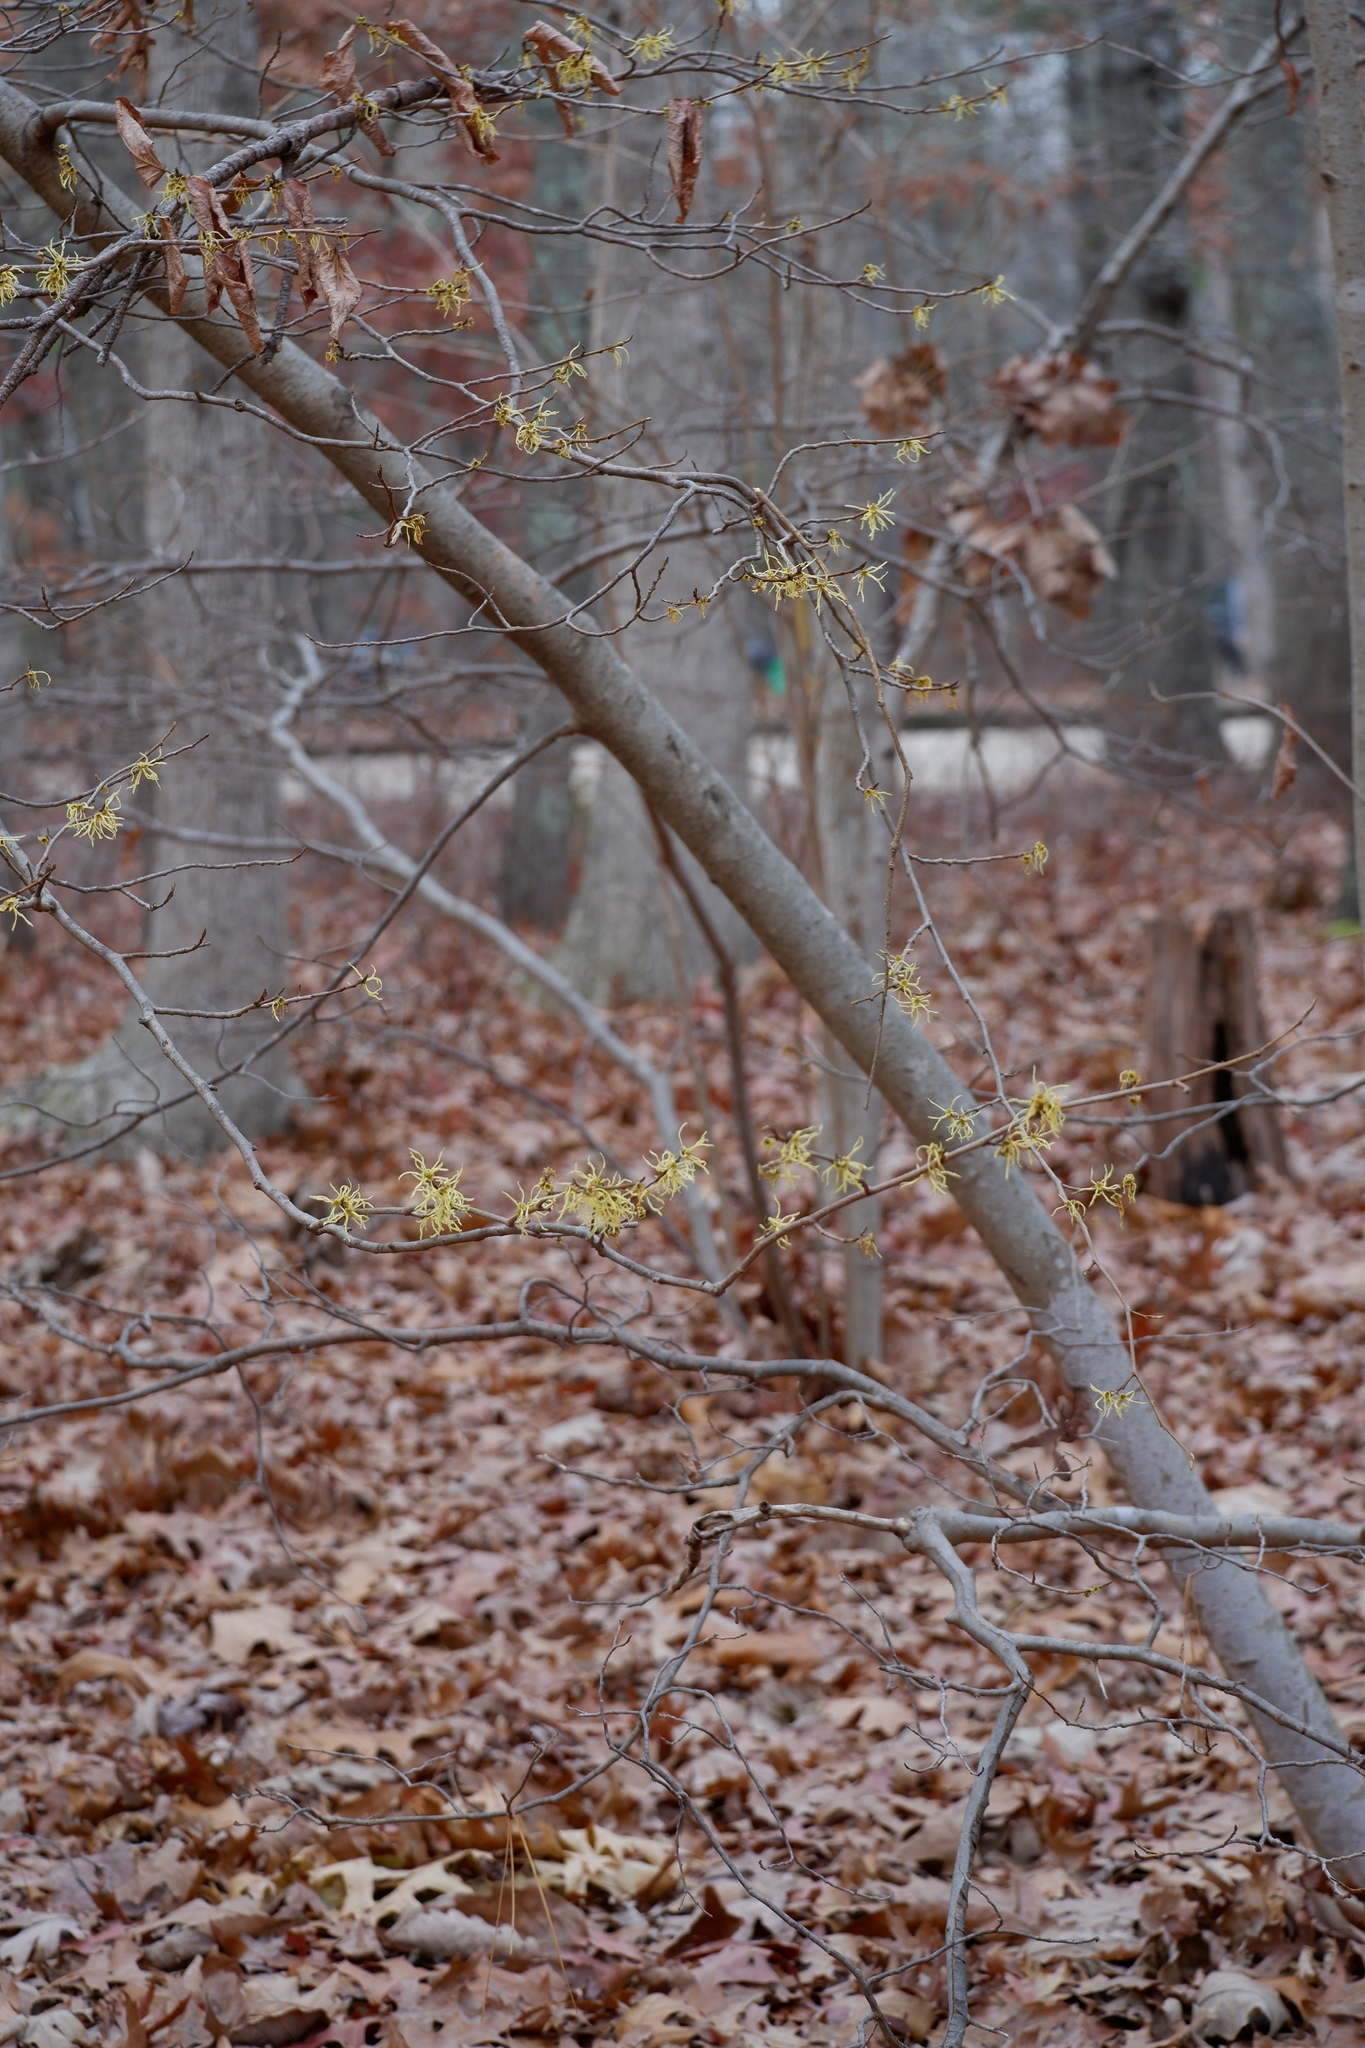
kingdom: Plantae
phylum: Tracheophyta
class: Magnoliopsida
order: Saxifragales
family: Hamamelidaceae
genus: Hamamelis
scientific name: Hamamelis virginiana
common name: Witch-hazel
